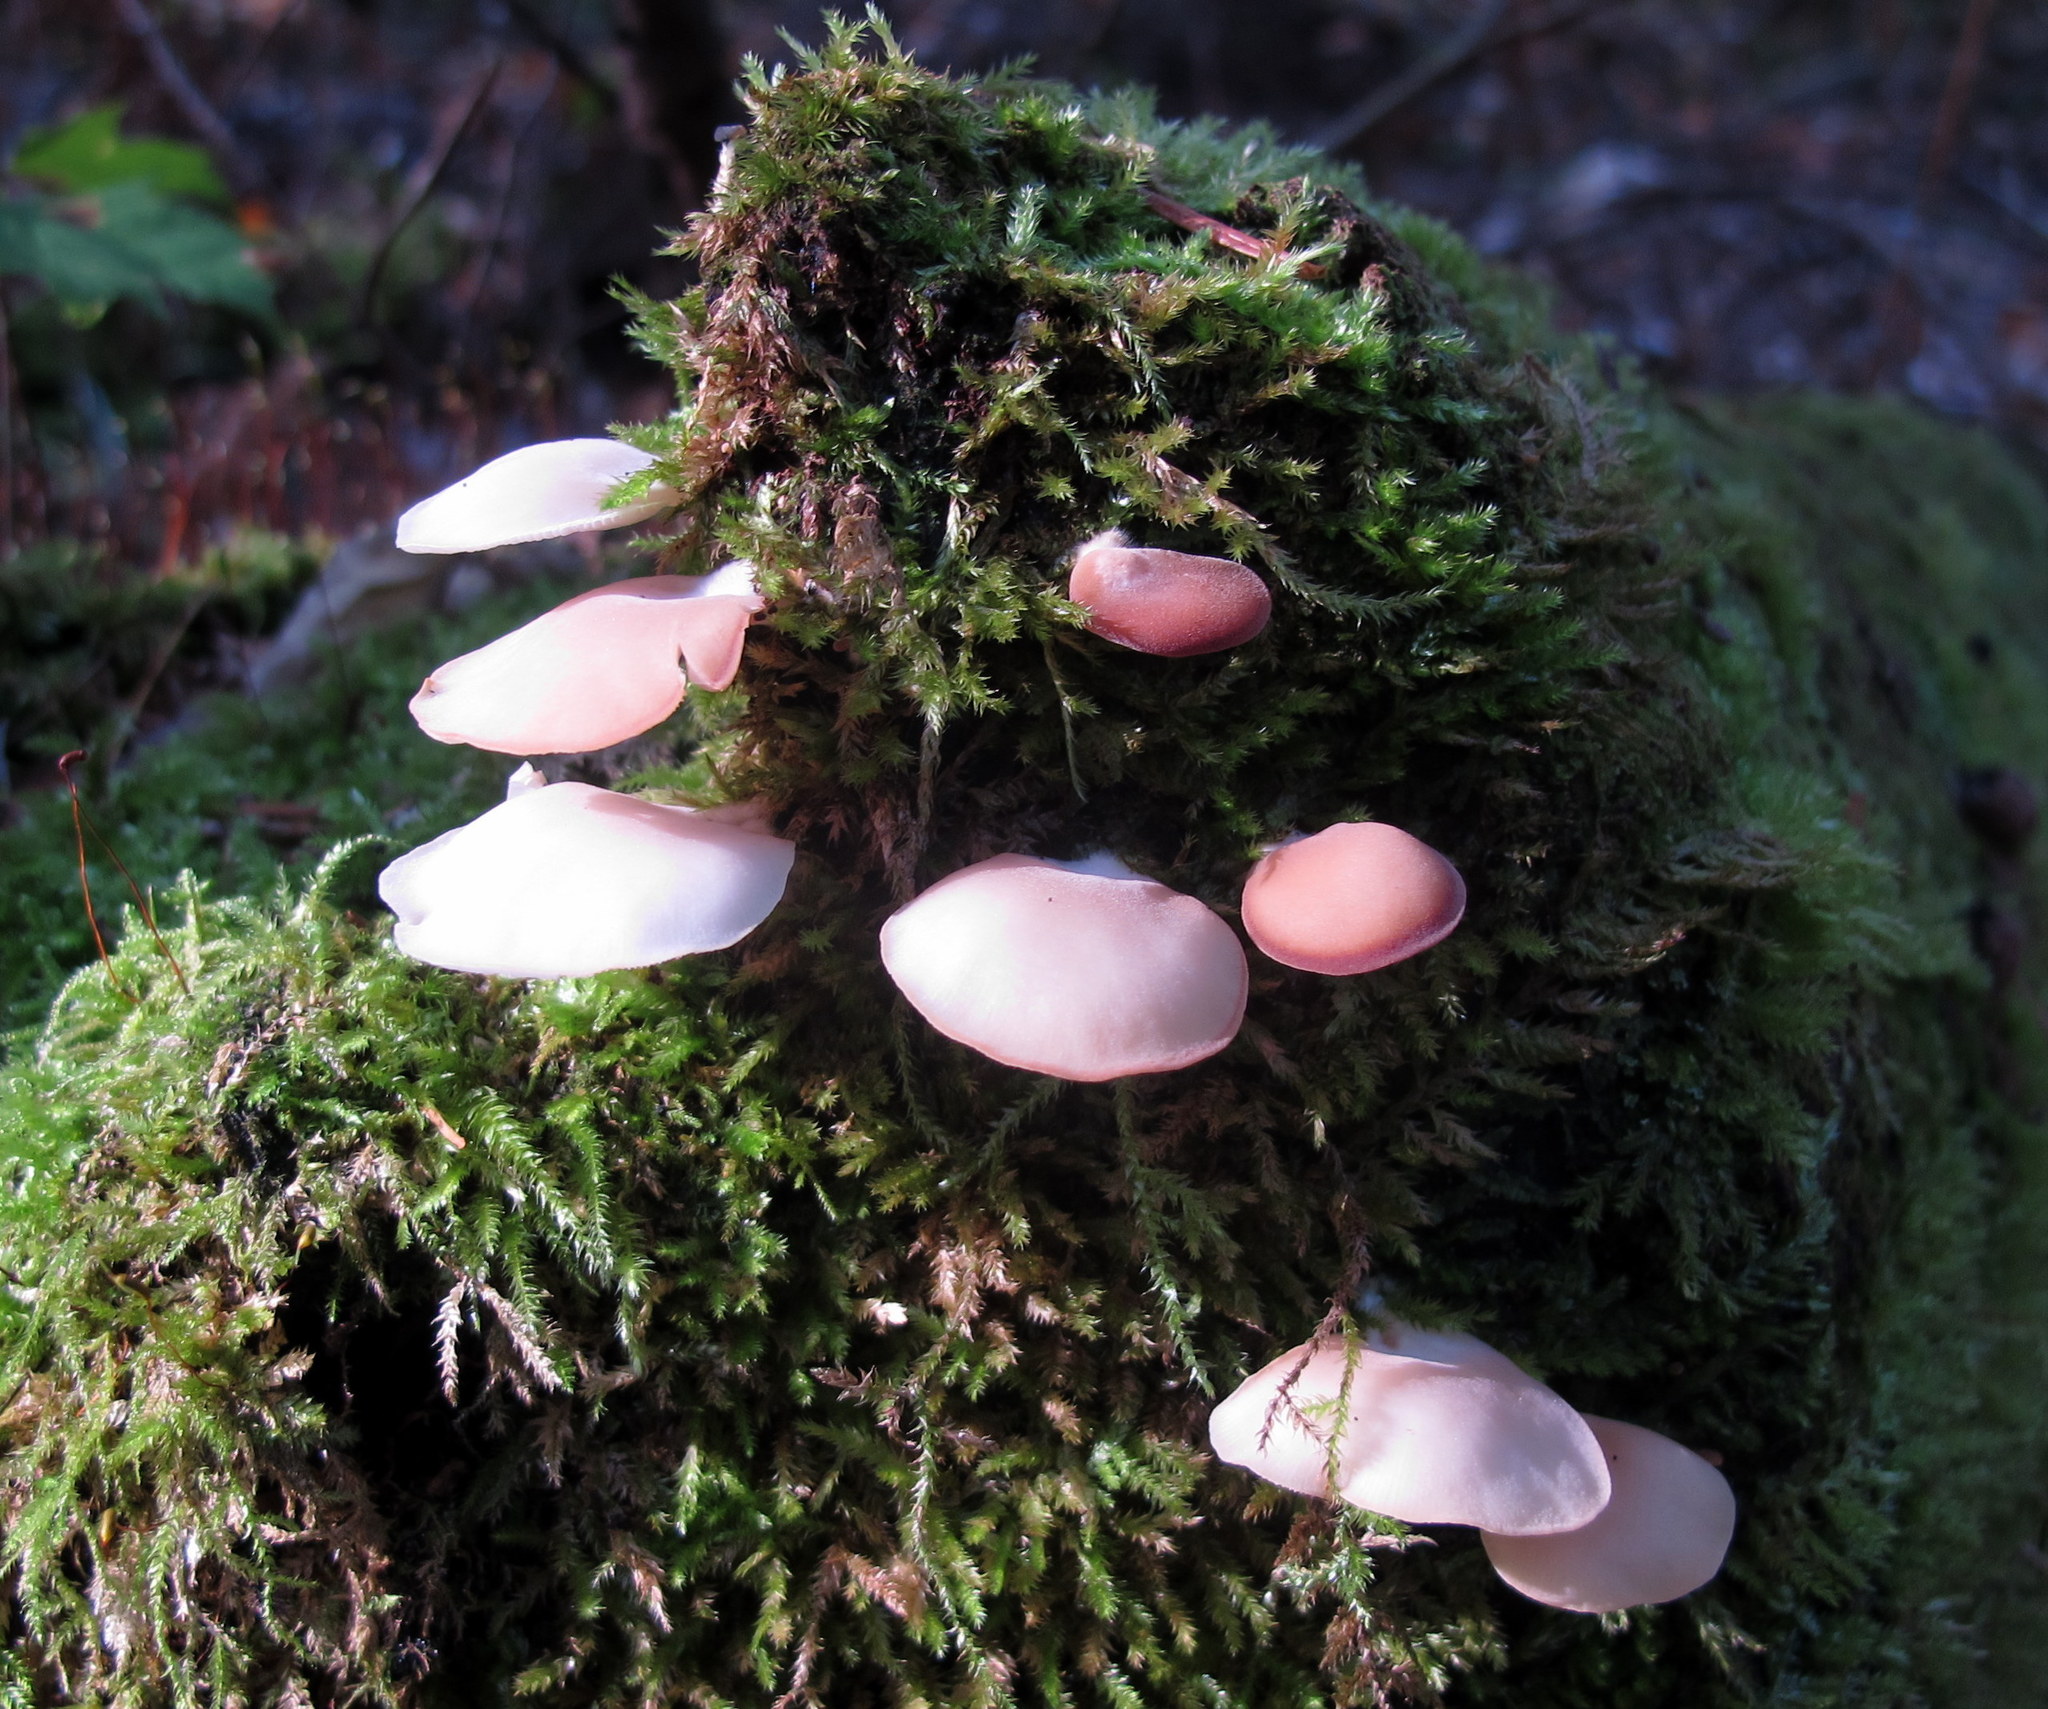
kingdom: Fungi
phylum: Basidiomycota
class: Agaricomycetes
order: Agaricales
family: Crepidotaceae
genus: Crepidotus
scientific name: Crepidotus applanatus
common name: Flat crep
